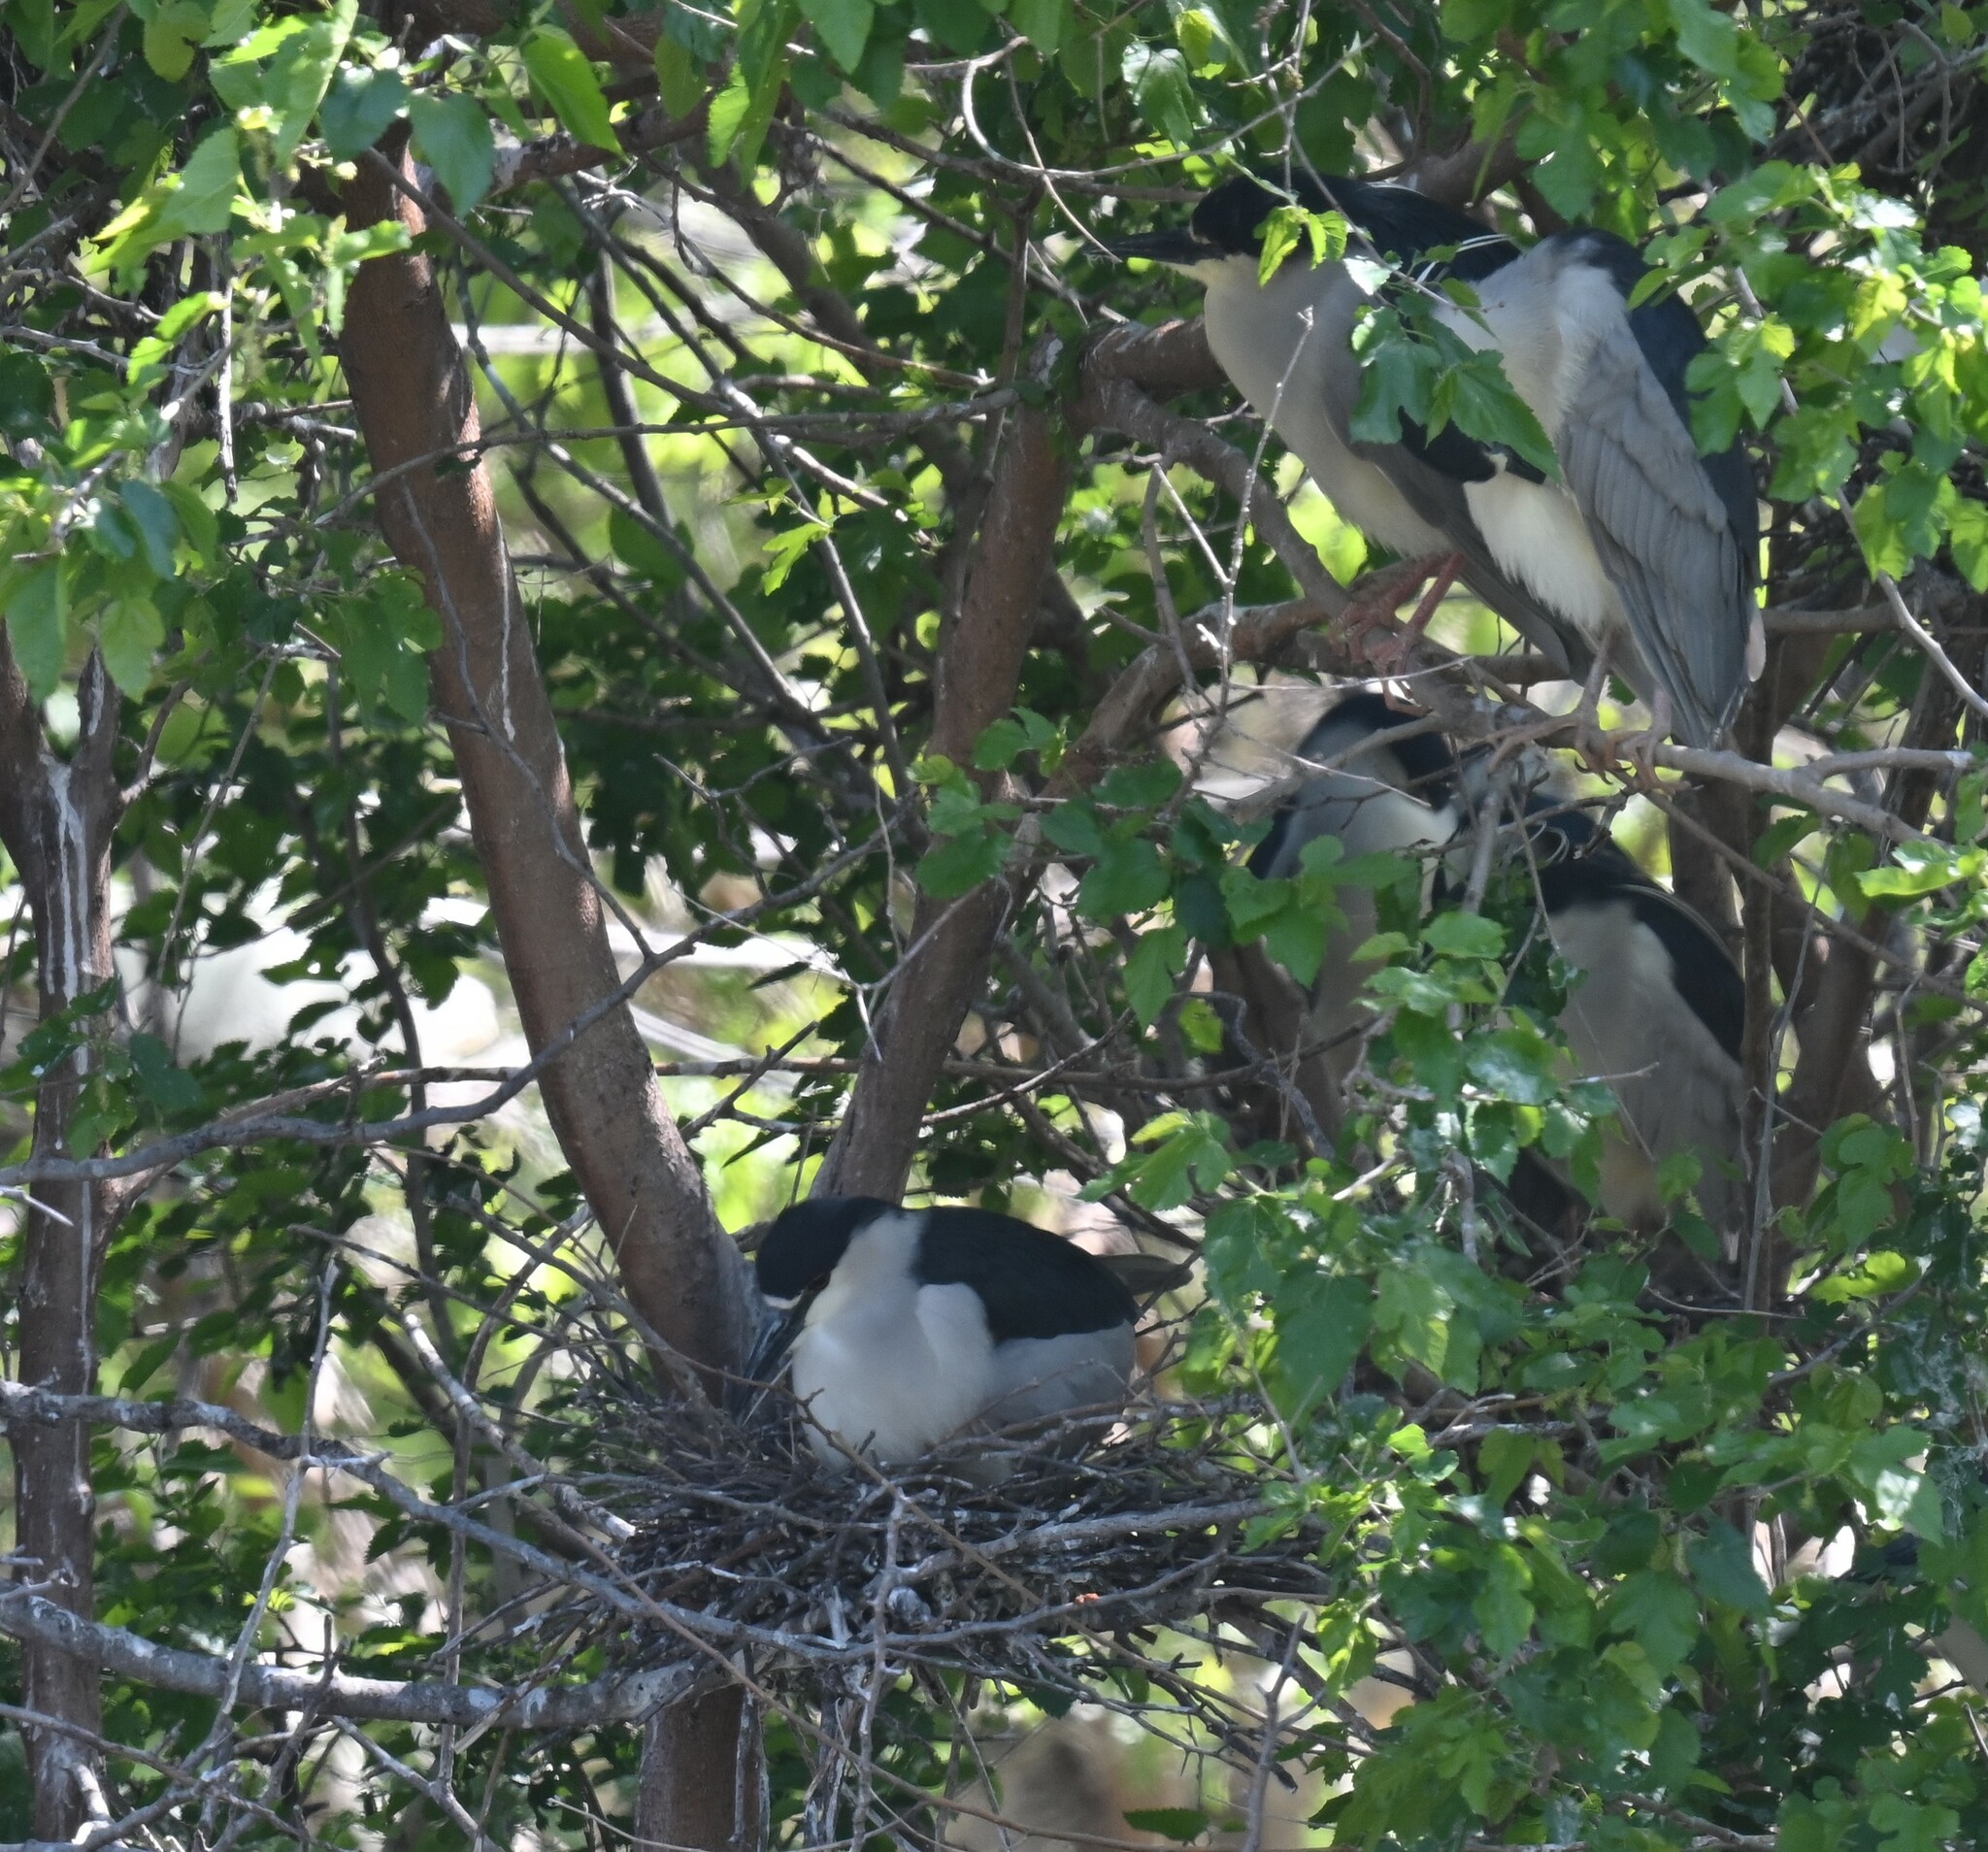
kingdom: Animalia
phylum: Chordata
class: Aves
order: Pelecaniformes
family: Ardeidae
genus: Nycticorax
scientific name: Nycticorax nycticorax
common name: Black-crowned night heron
